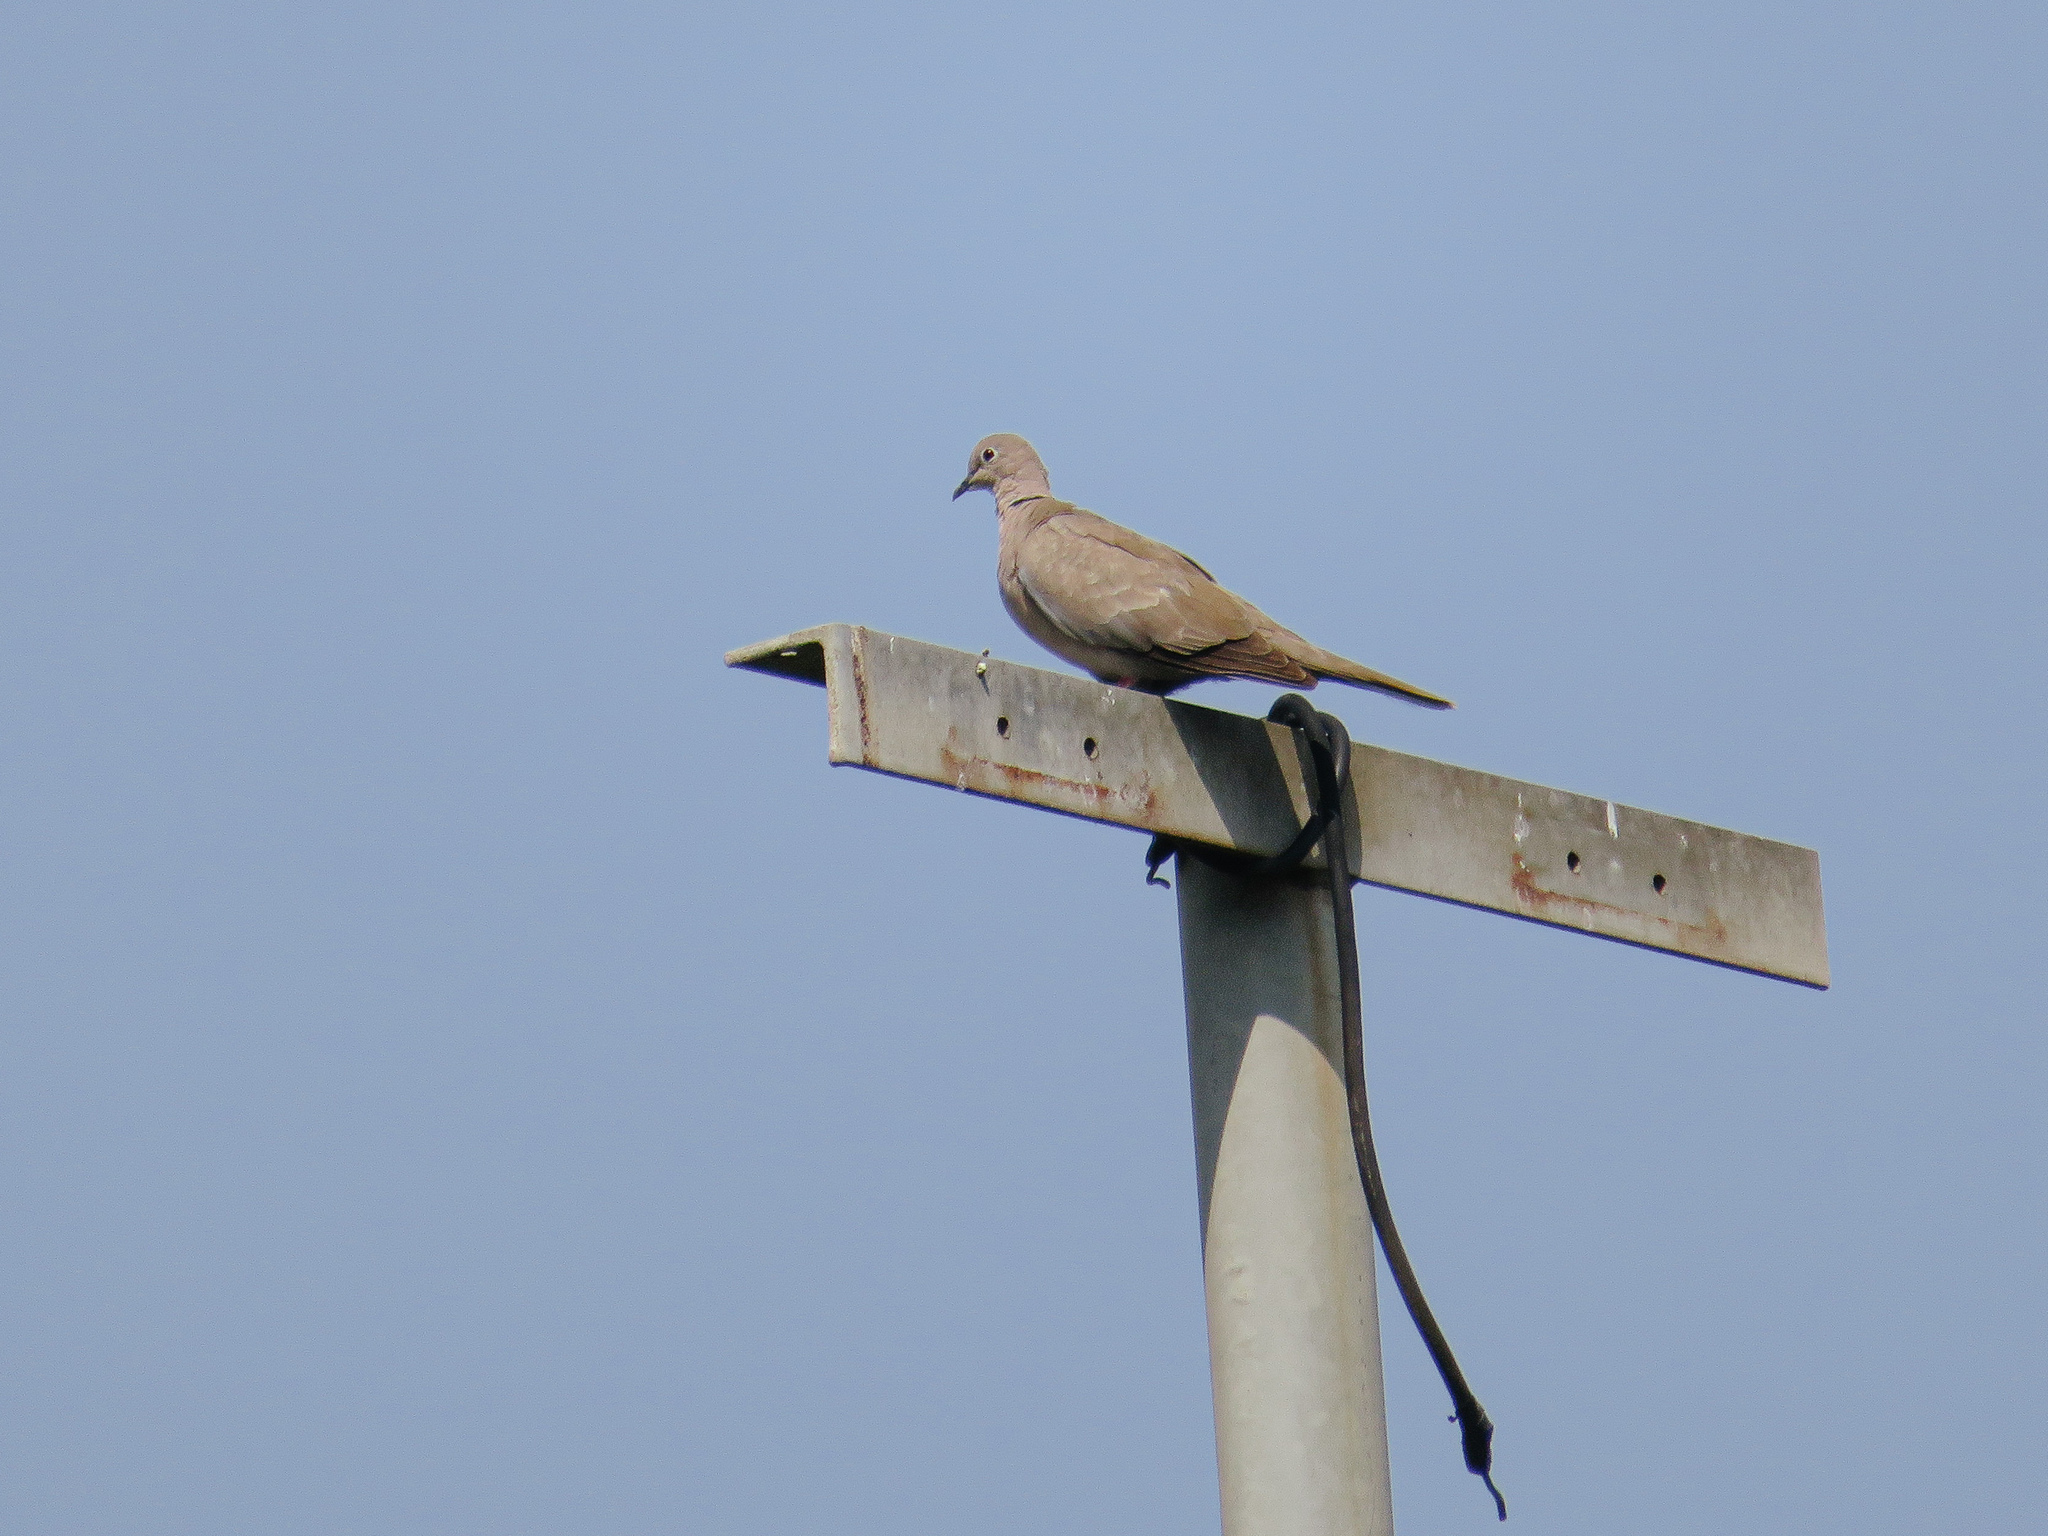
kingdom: Animalia
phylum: Chordata
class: Aves
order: Columbiformes
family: Columbidae
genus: Streptopelia
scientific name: Streptopelia decaocto
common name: Eurasian collared dove
